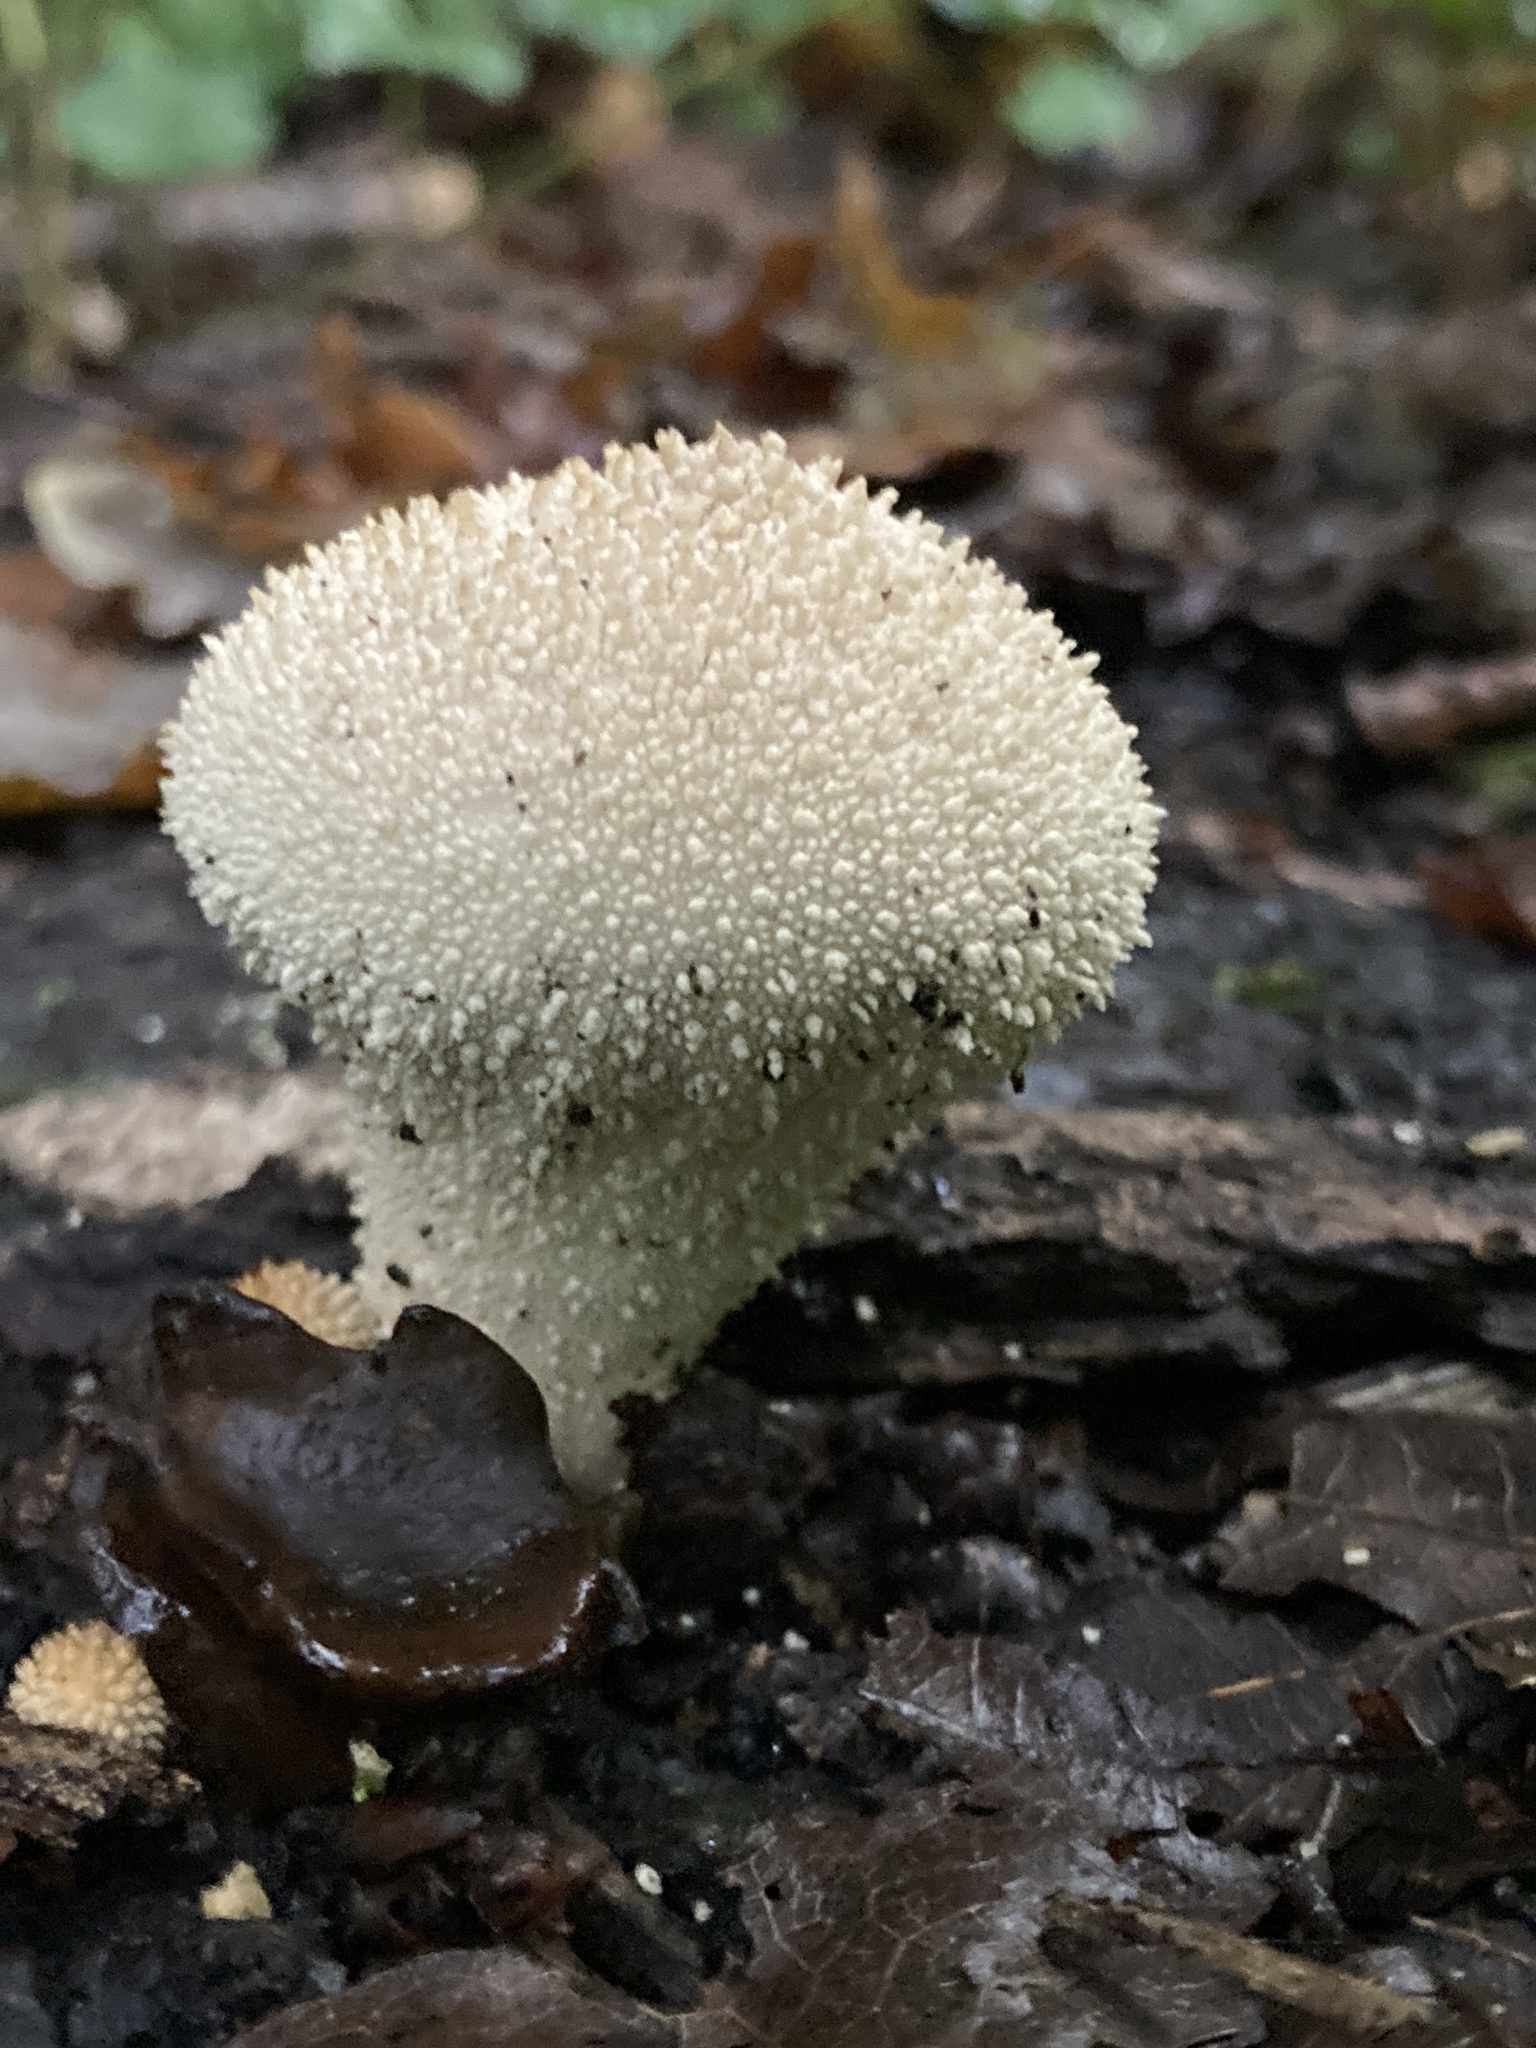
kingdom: Fungi
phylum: Basidiomycota
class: Agaricomycetes
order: Agaricales
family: Lycoperdaceae
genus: Lycoperdon
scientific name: Lycoperdon perlatum
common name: Common puffball
